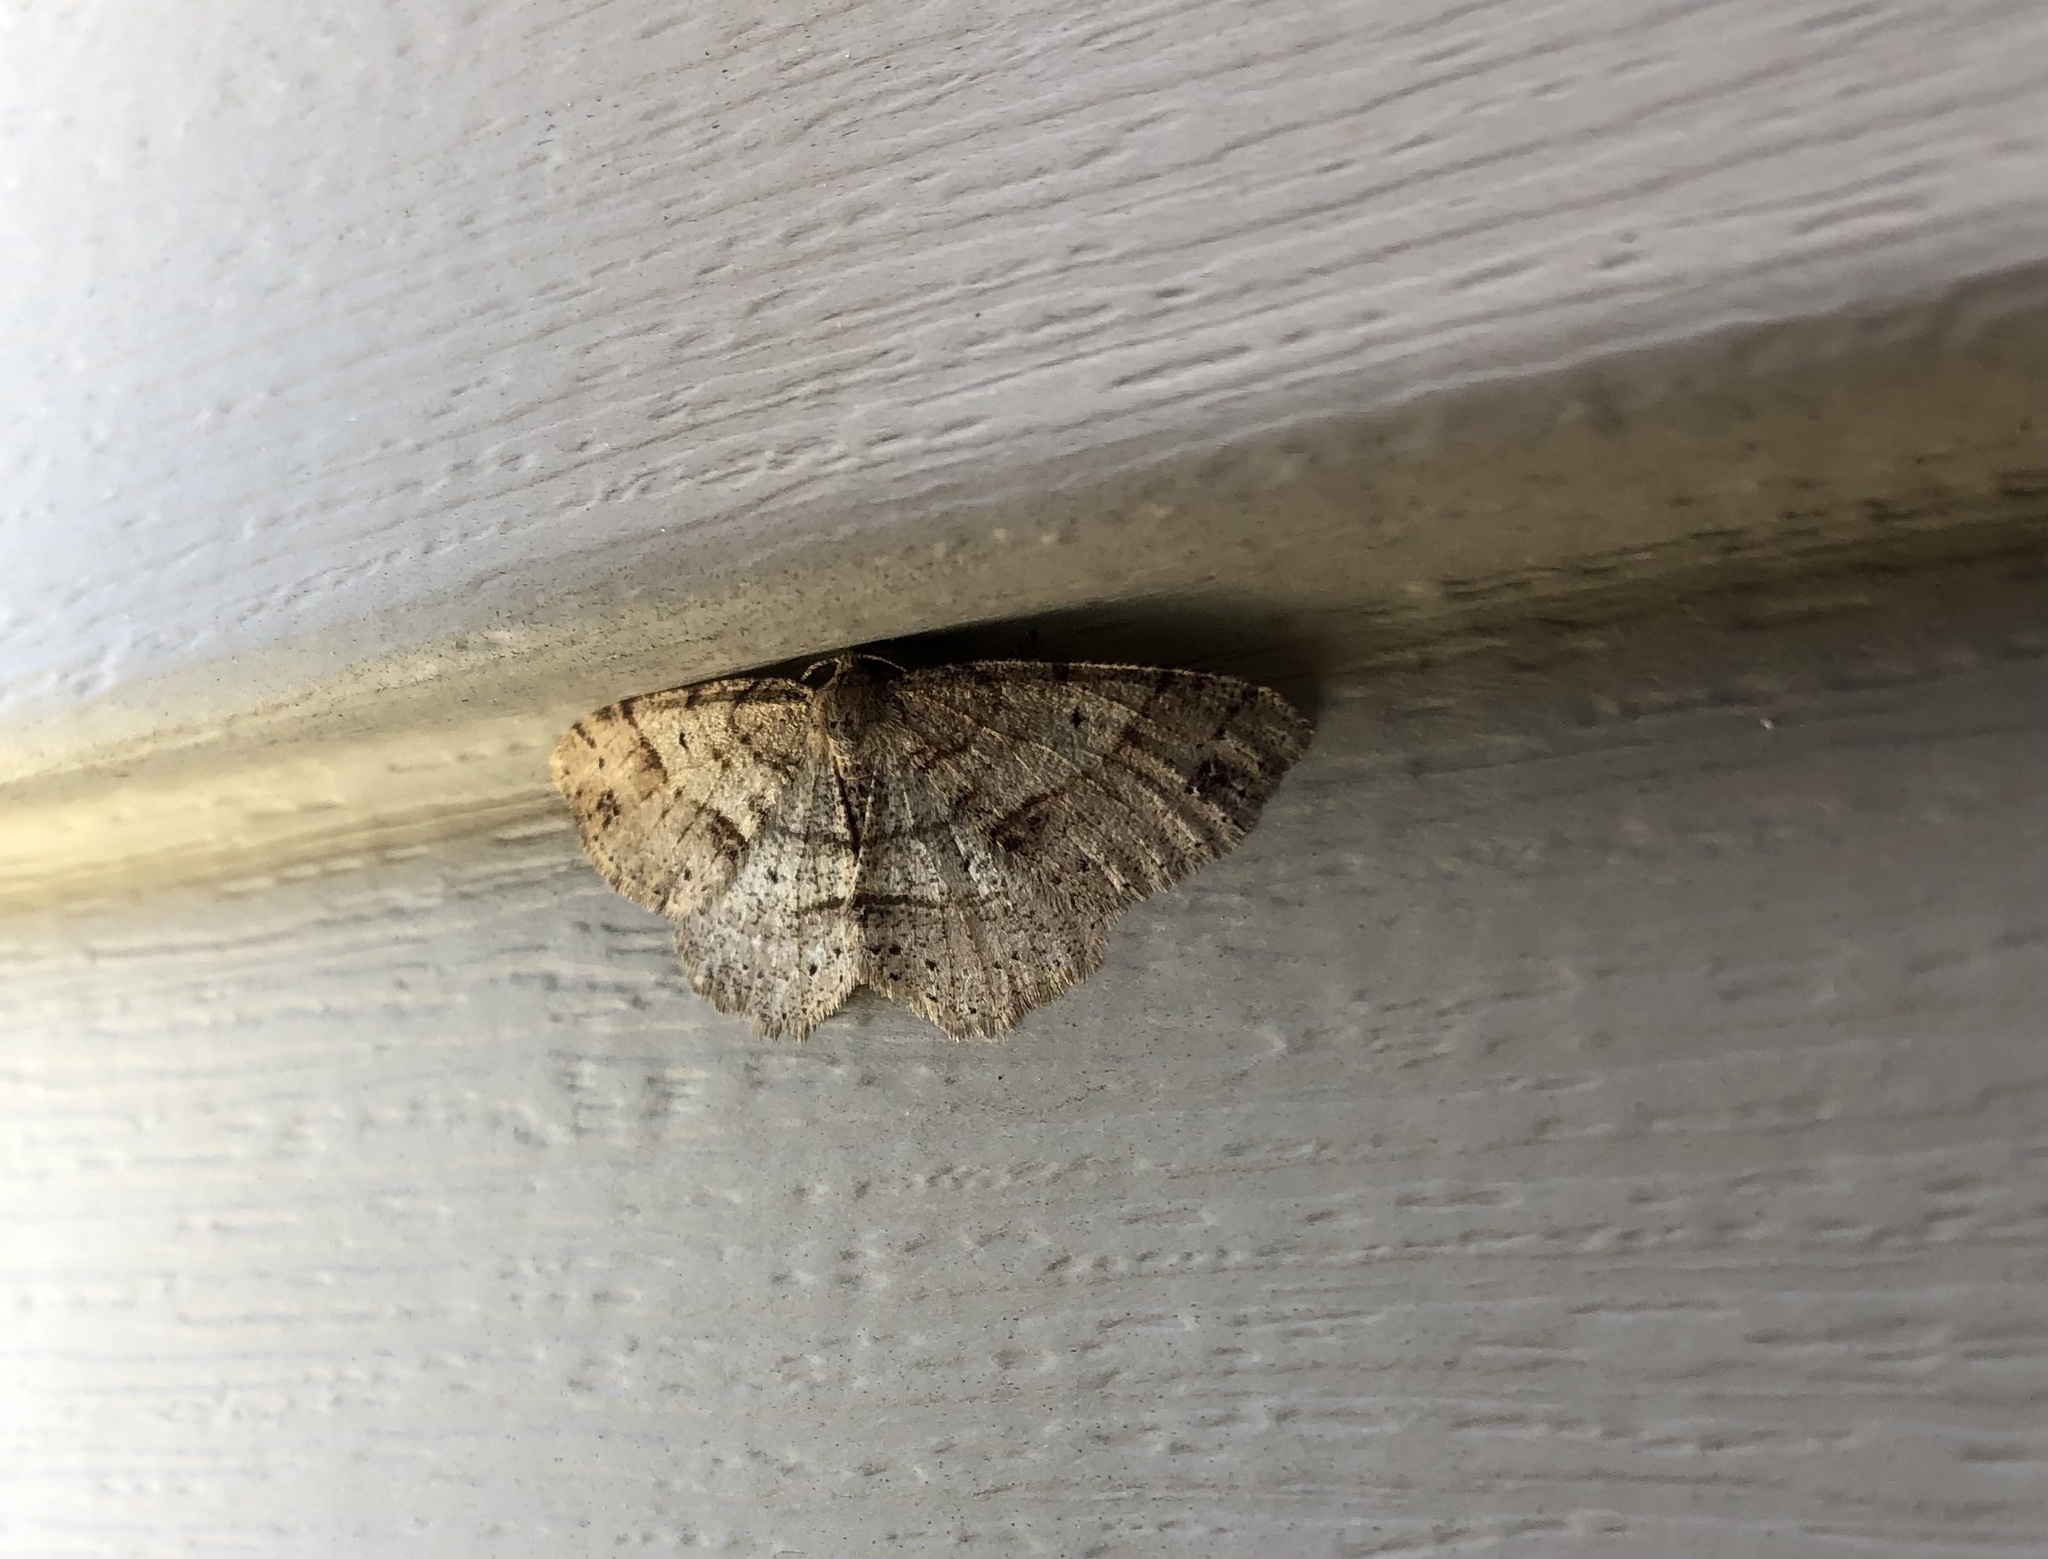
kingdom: Animalia
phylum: Arthropoda
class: Insecta
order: Lepidoptera
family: Geometridae
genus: Melanolophia
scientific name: Melanolophia canadaria
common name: Canadian melanolophia
